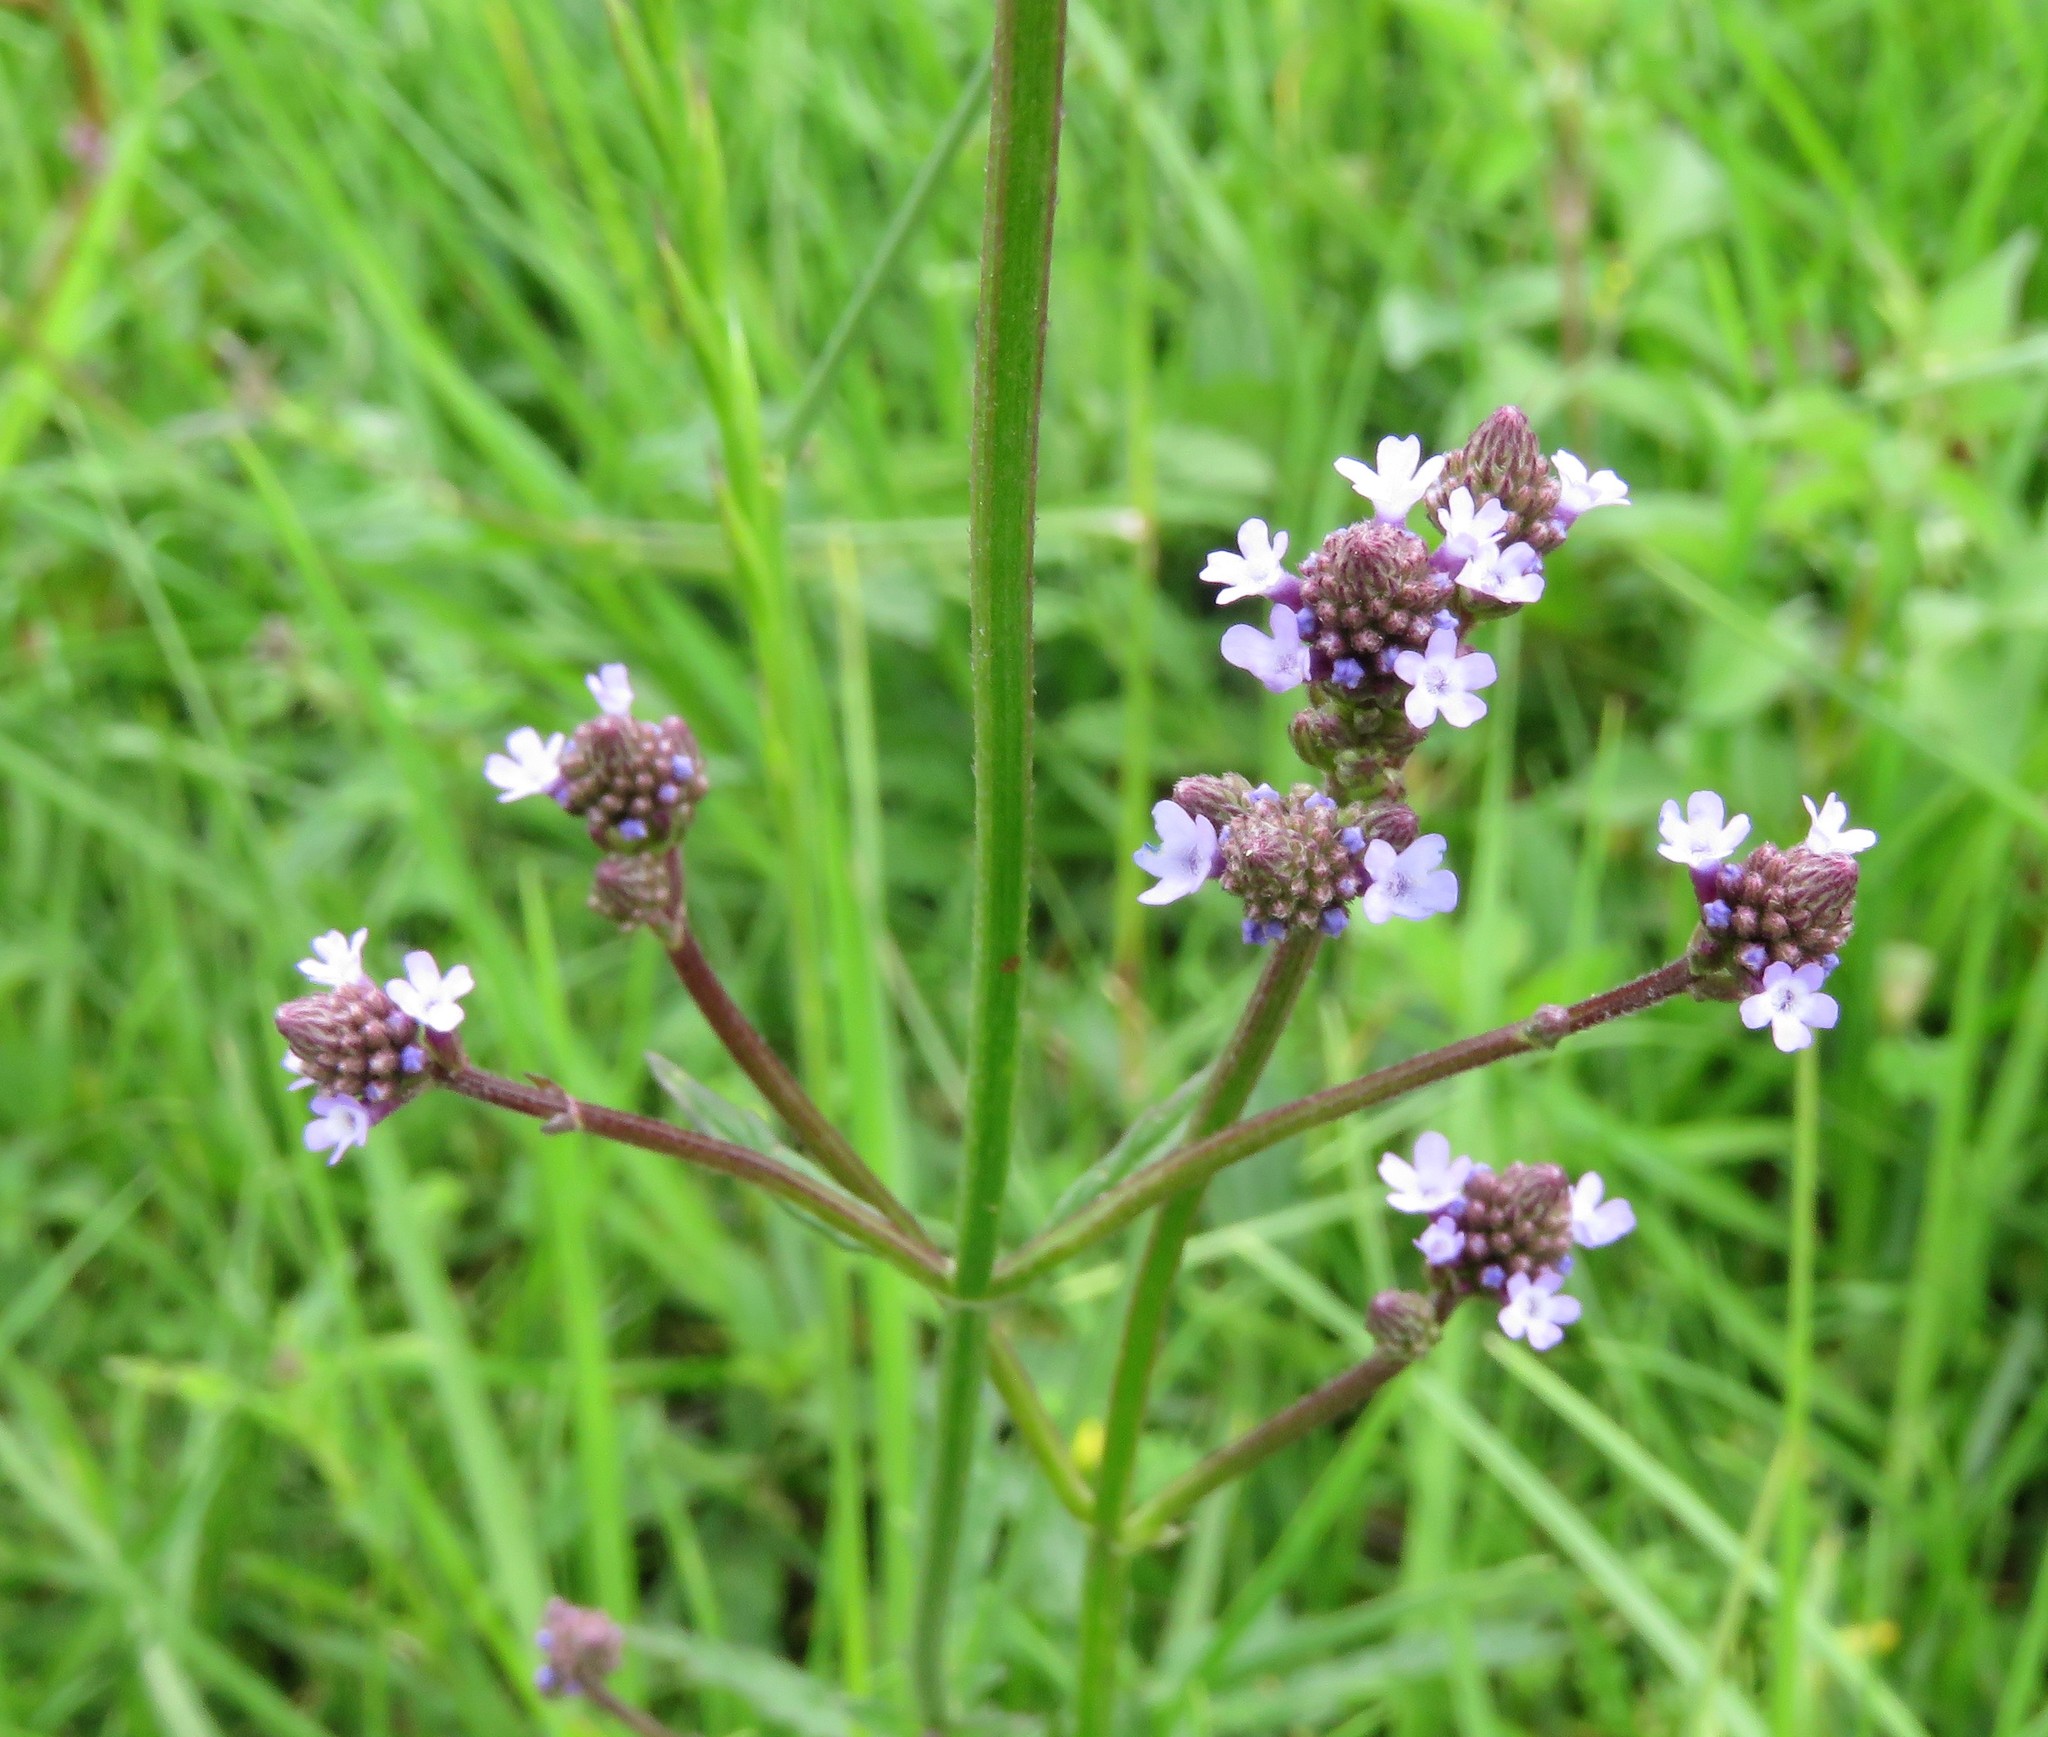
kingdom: Plantae
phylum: Tracheophyta
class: Magnoliopsida
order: Lamiales
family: Verbenaceae
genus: Verbena
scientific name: Verbena litoralis
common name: Seashore vervain
